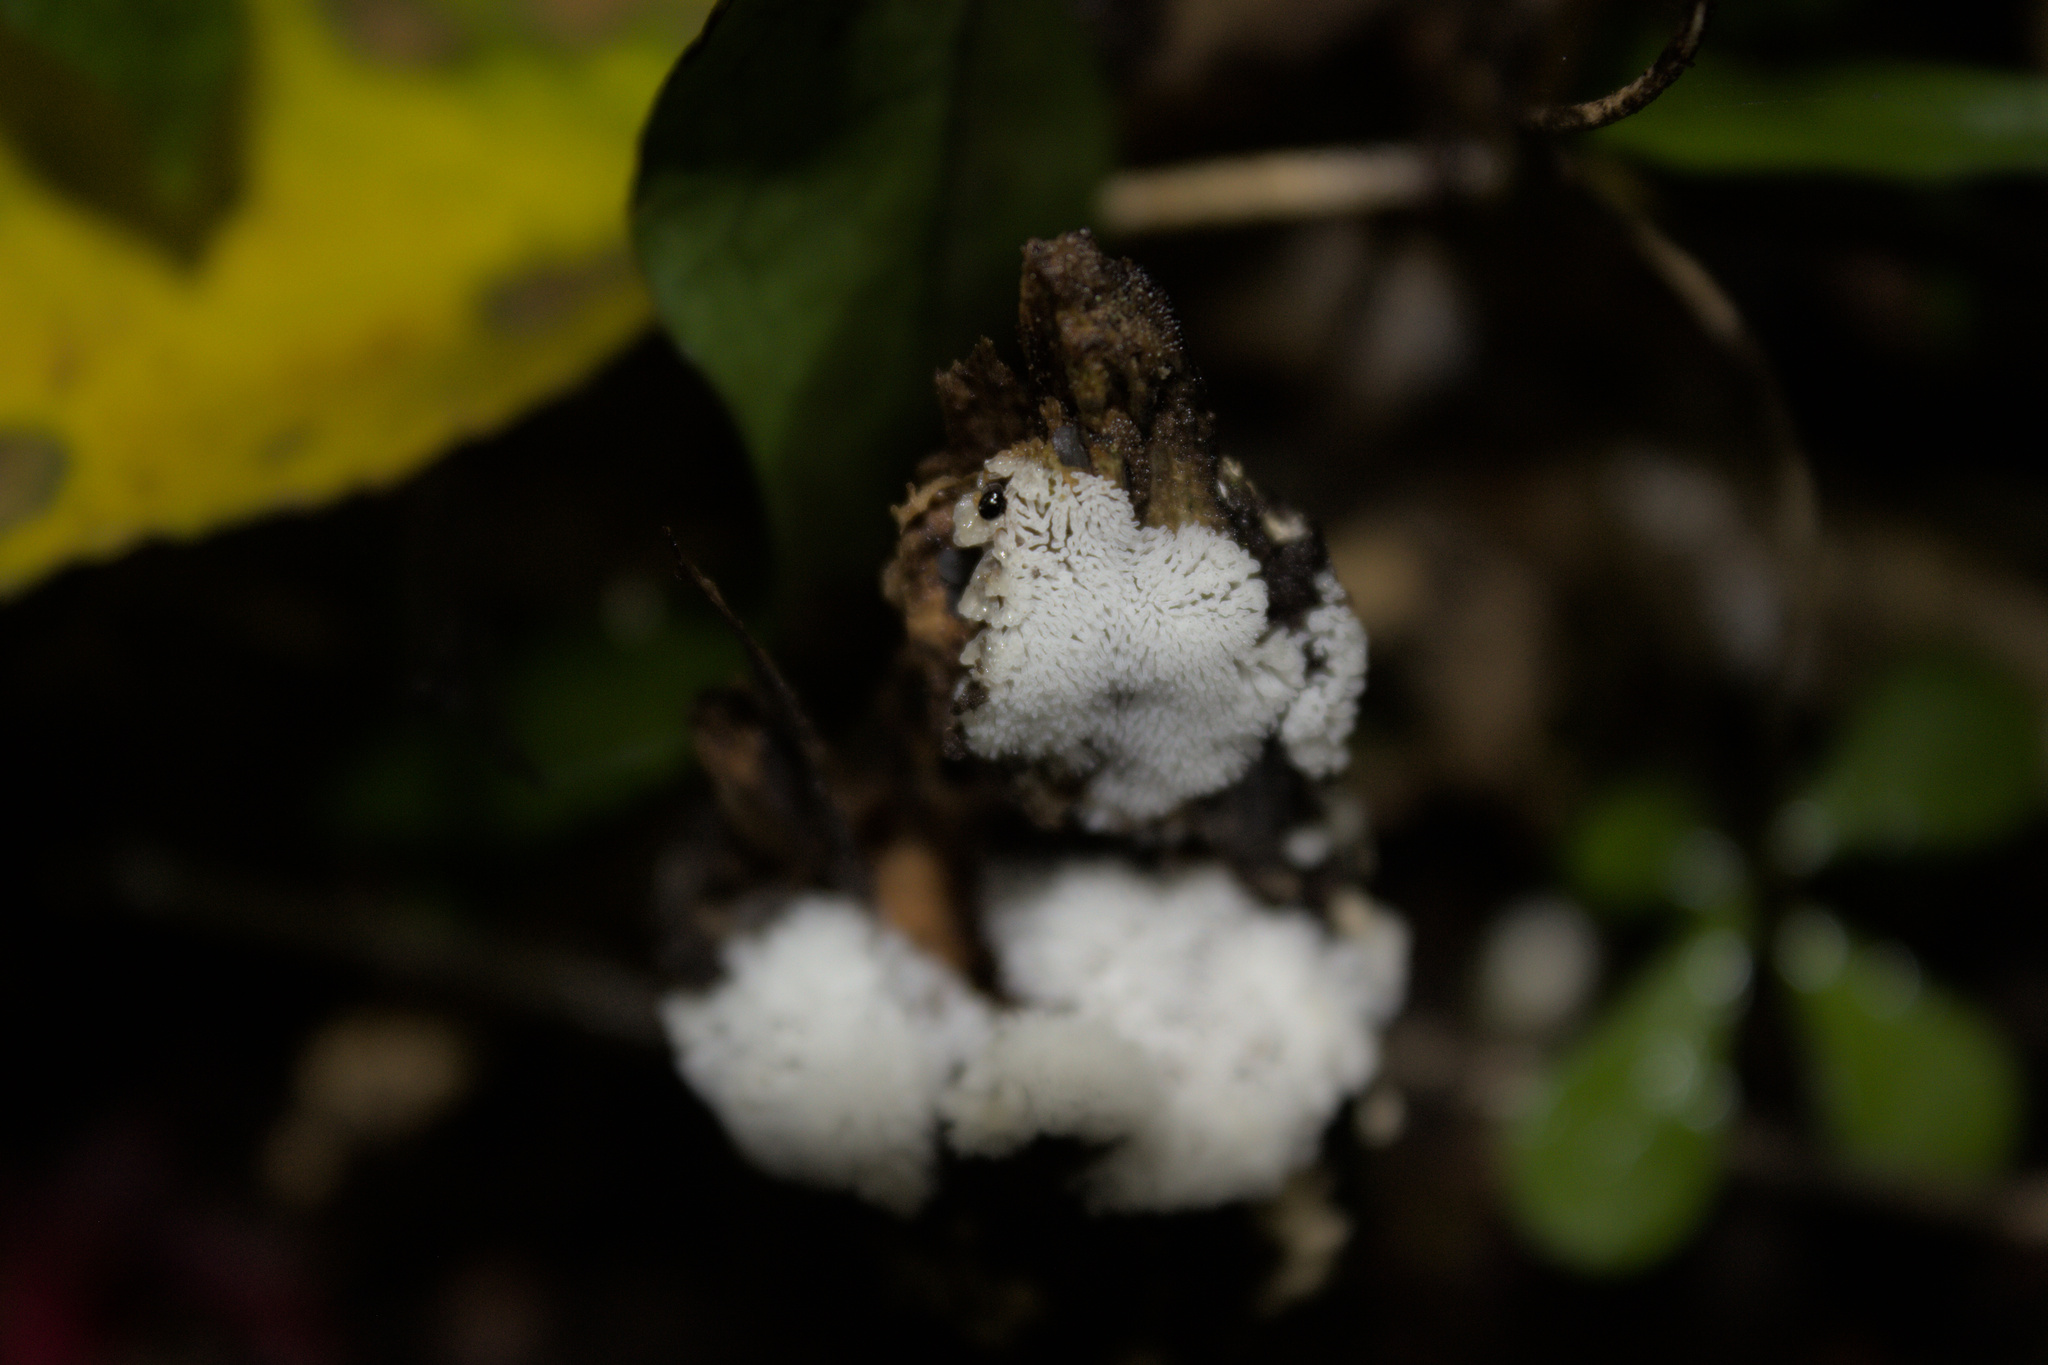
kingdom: Protozoa
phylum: Mycetozoa
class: Protosteliomycetes
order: Ceratiomyxales
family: Ceratiomyxaceae
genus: Ceratiomyxa
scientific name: Ceratiomyxa fruticulosa
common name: Honeycomb coral slime mold
